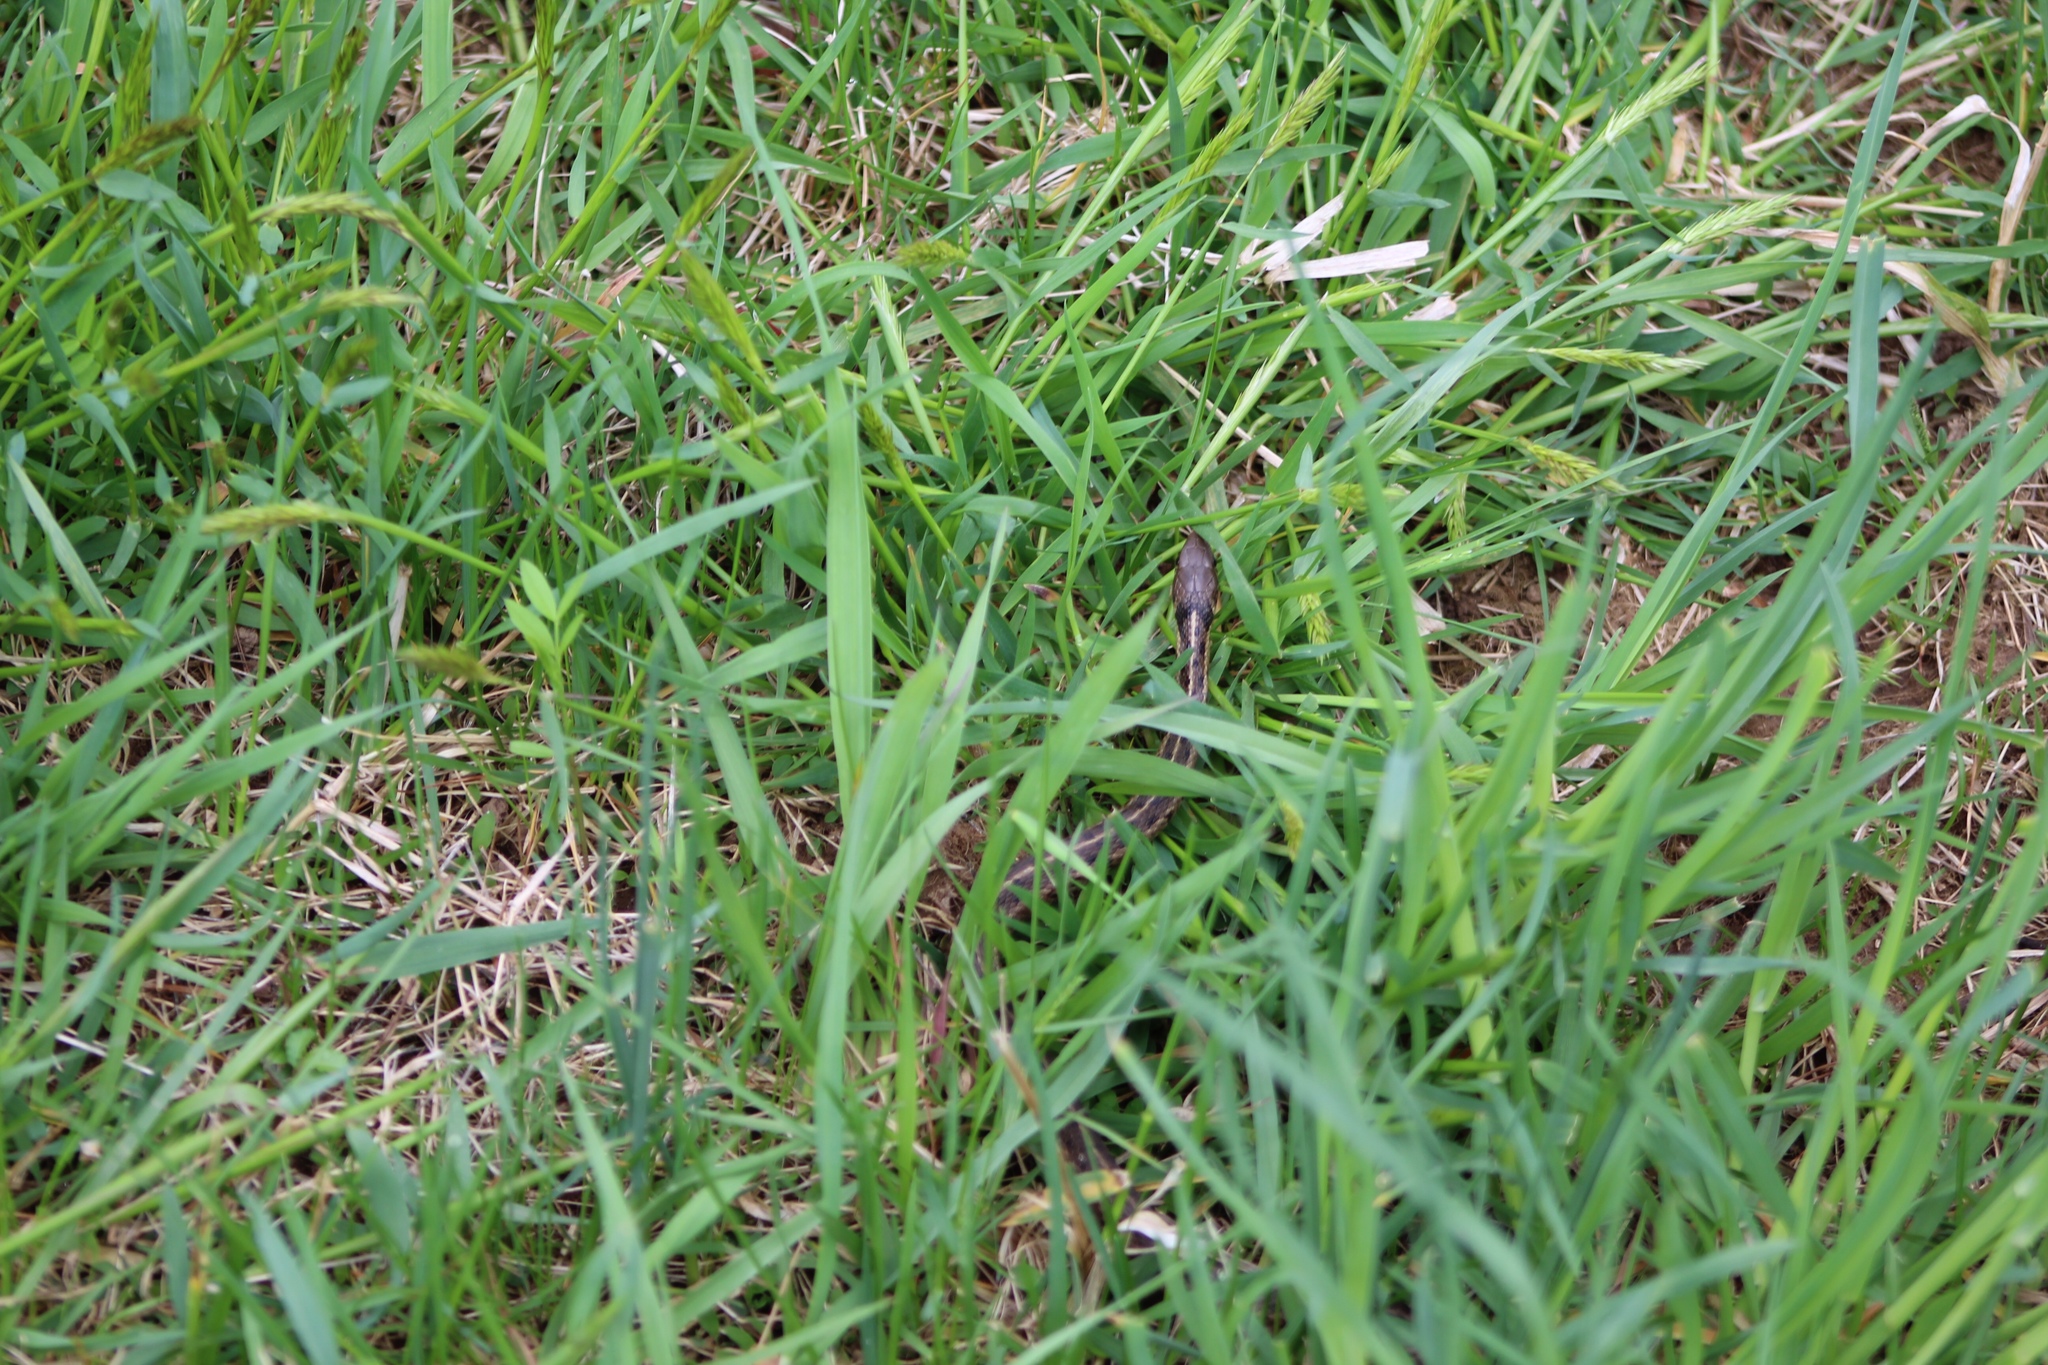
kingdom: Animalia
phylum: Chordata
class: Squamata
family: Colubridae
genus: Thamnophis
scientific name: Thamnophis sirtalis
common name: Common garter snake
